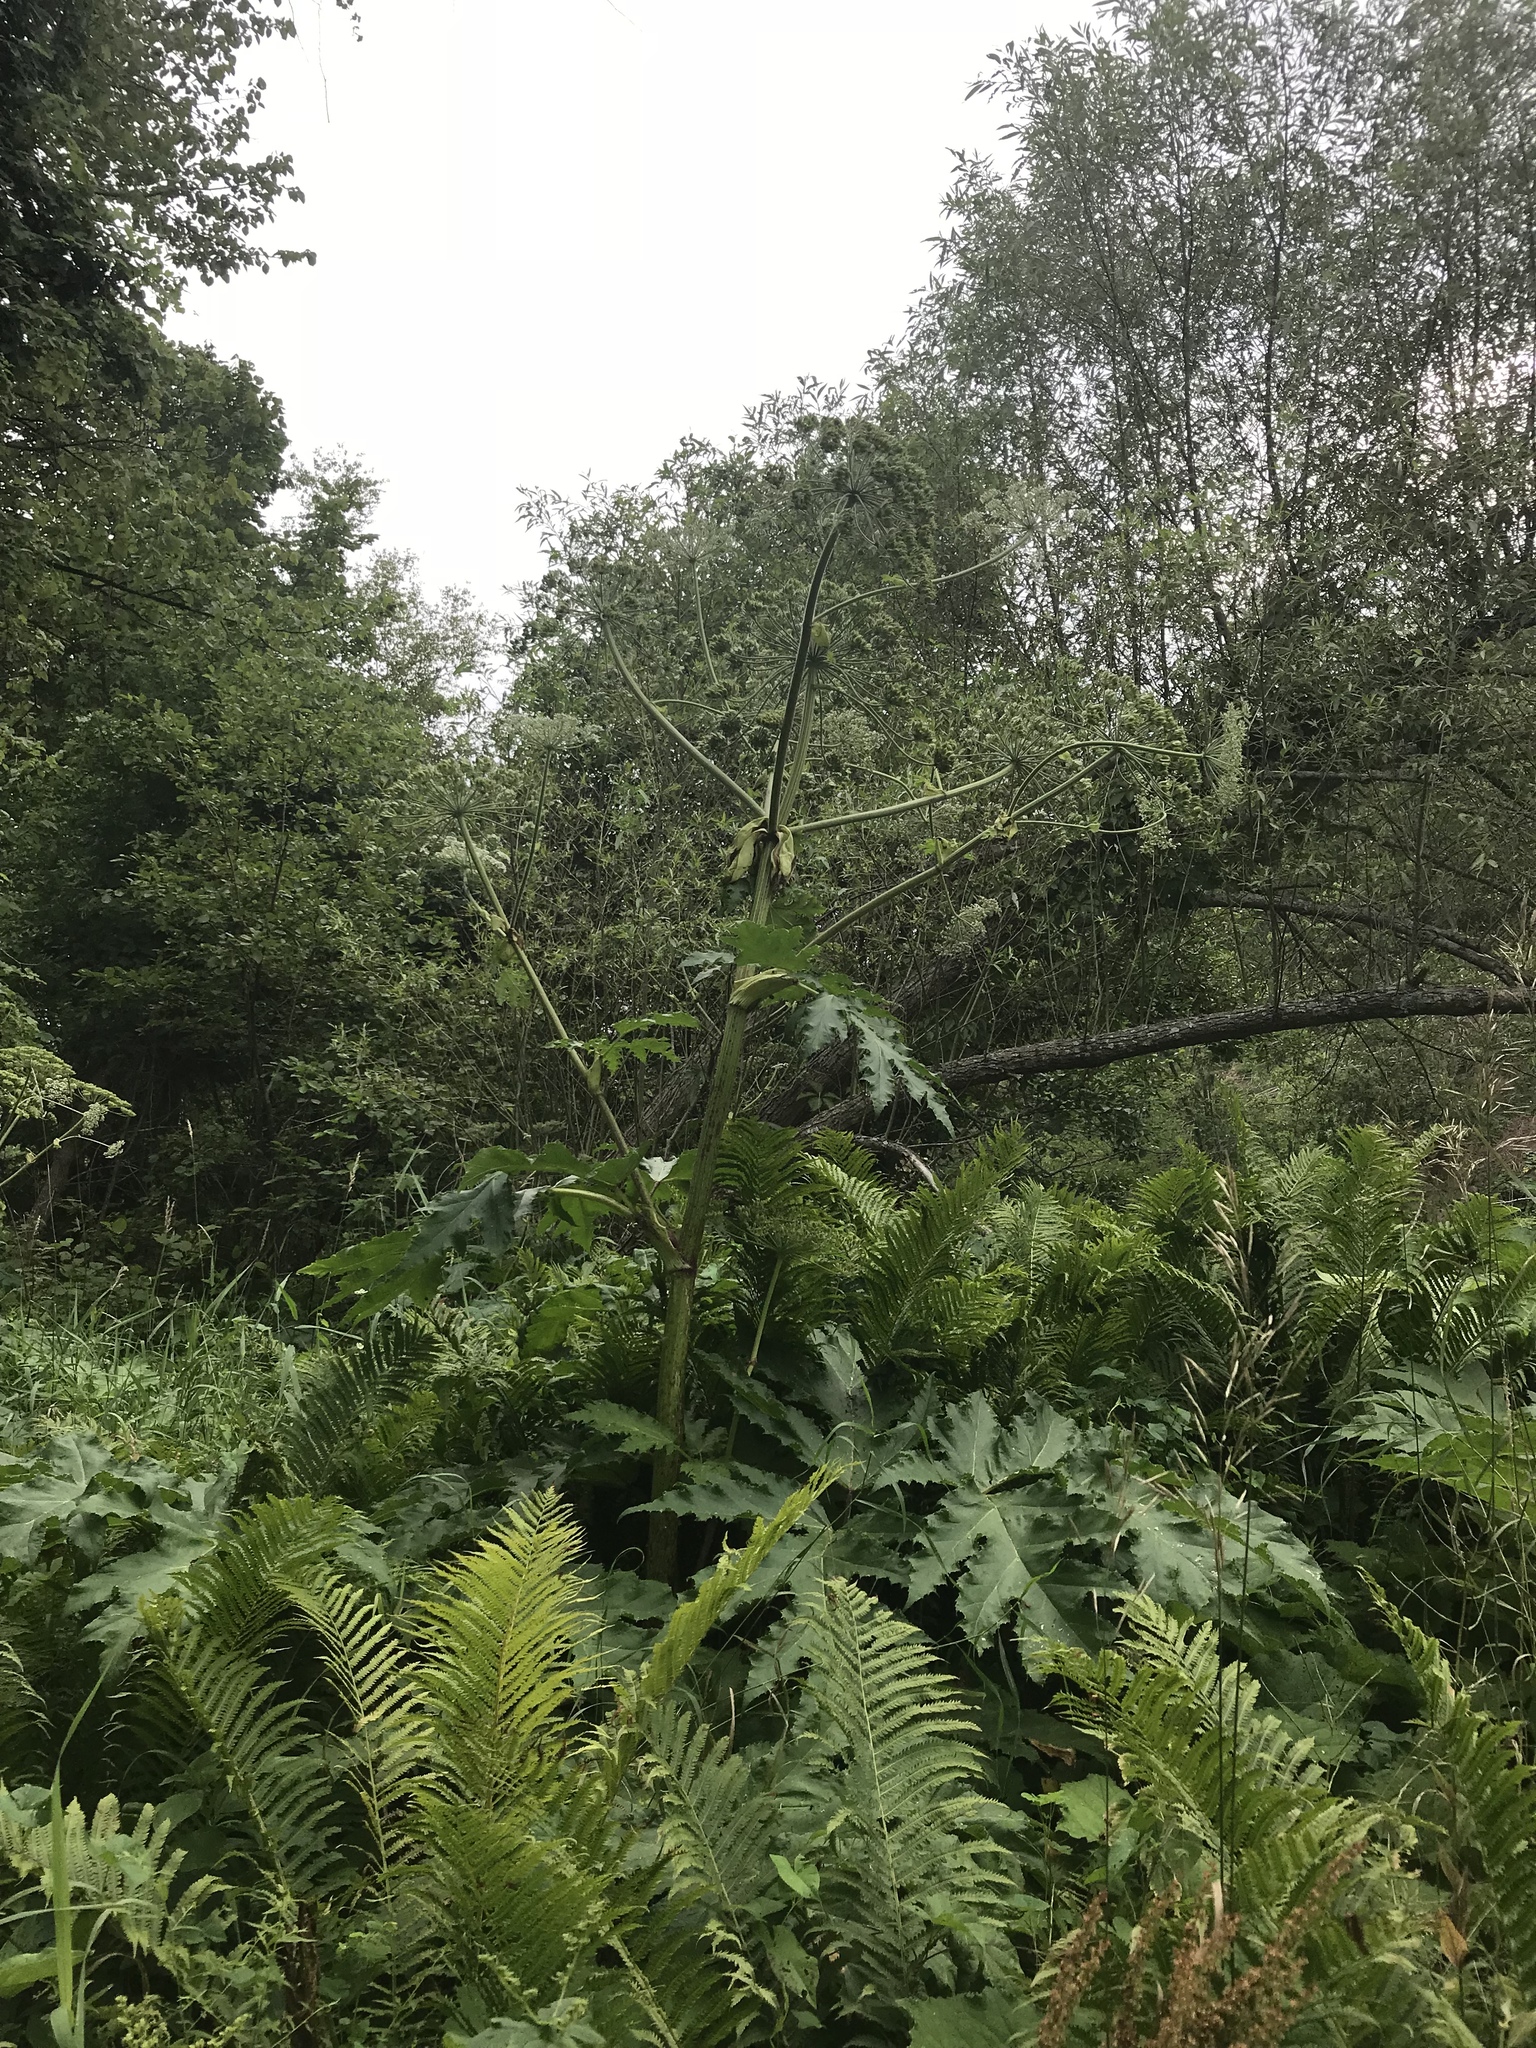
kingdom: Plantae
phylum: Tracheophyta
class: Magnoliopsida
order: Apiales
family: Apiaceae
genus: Heracleum
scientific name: Heracleum mantegazzianum
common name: Giant hogweed
